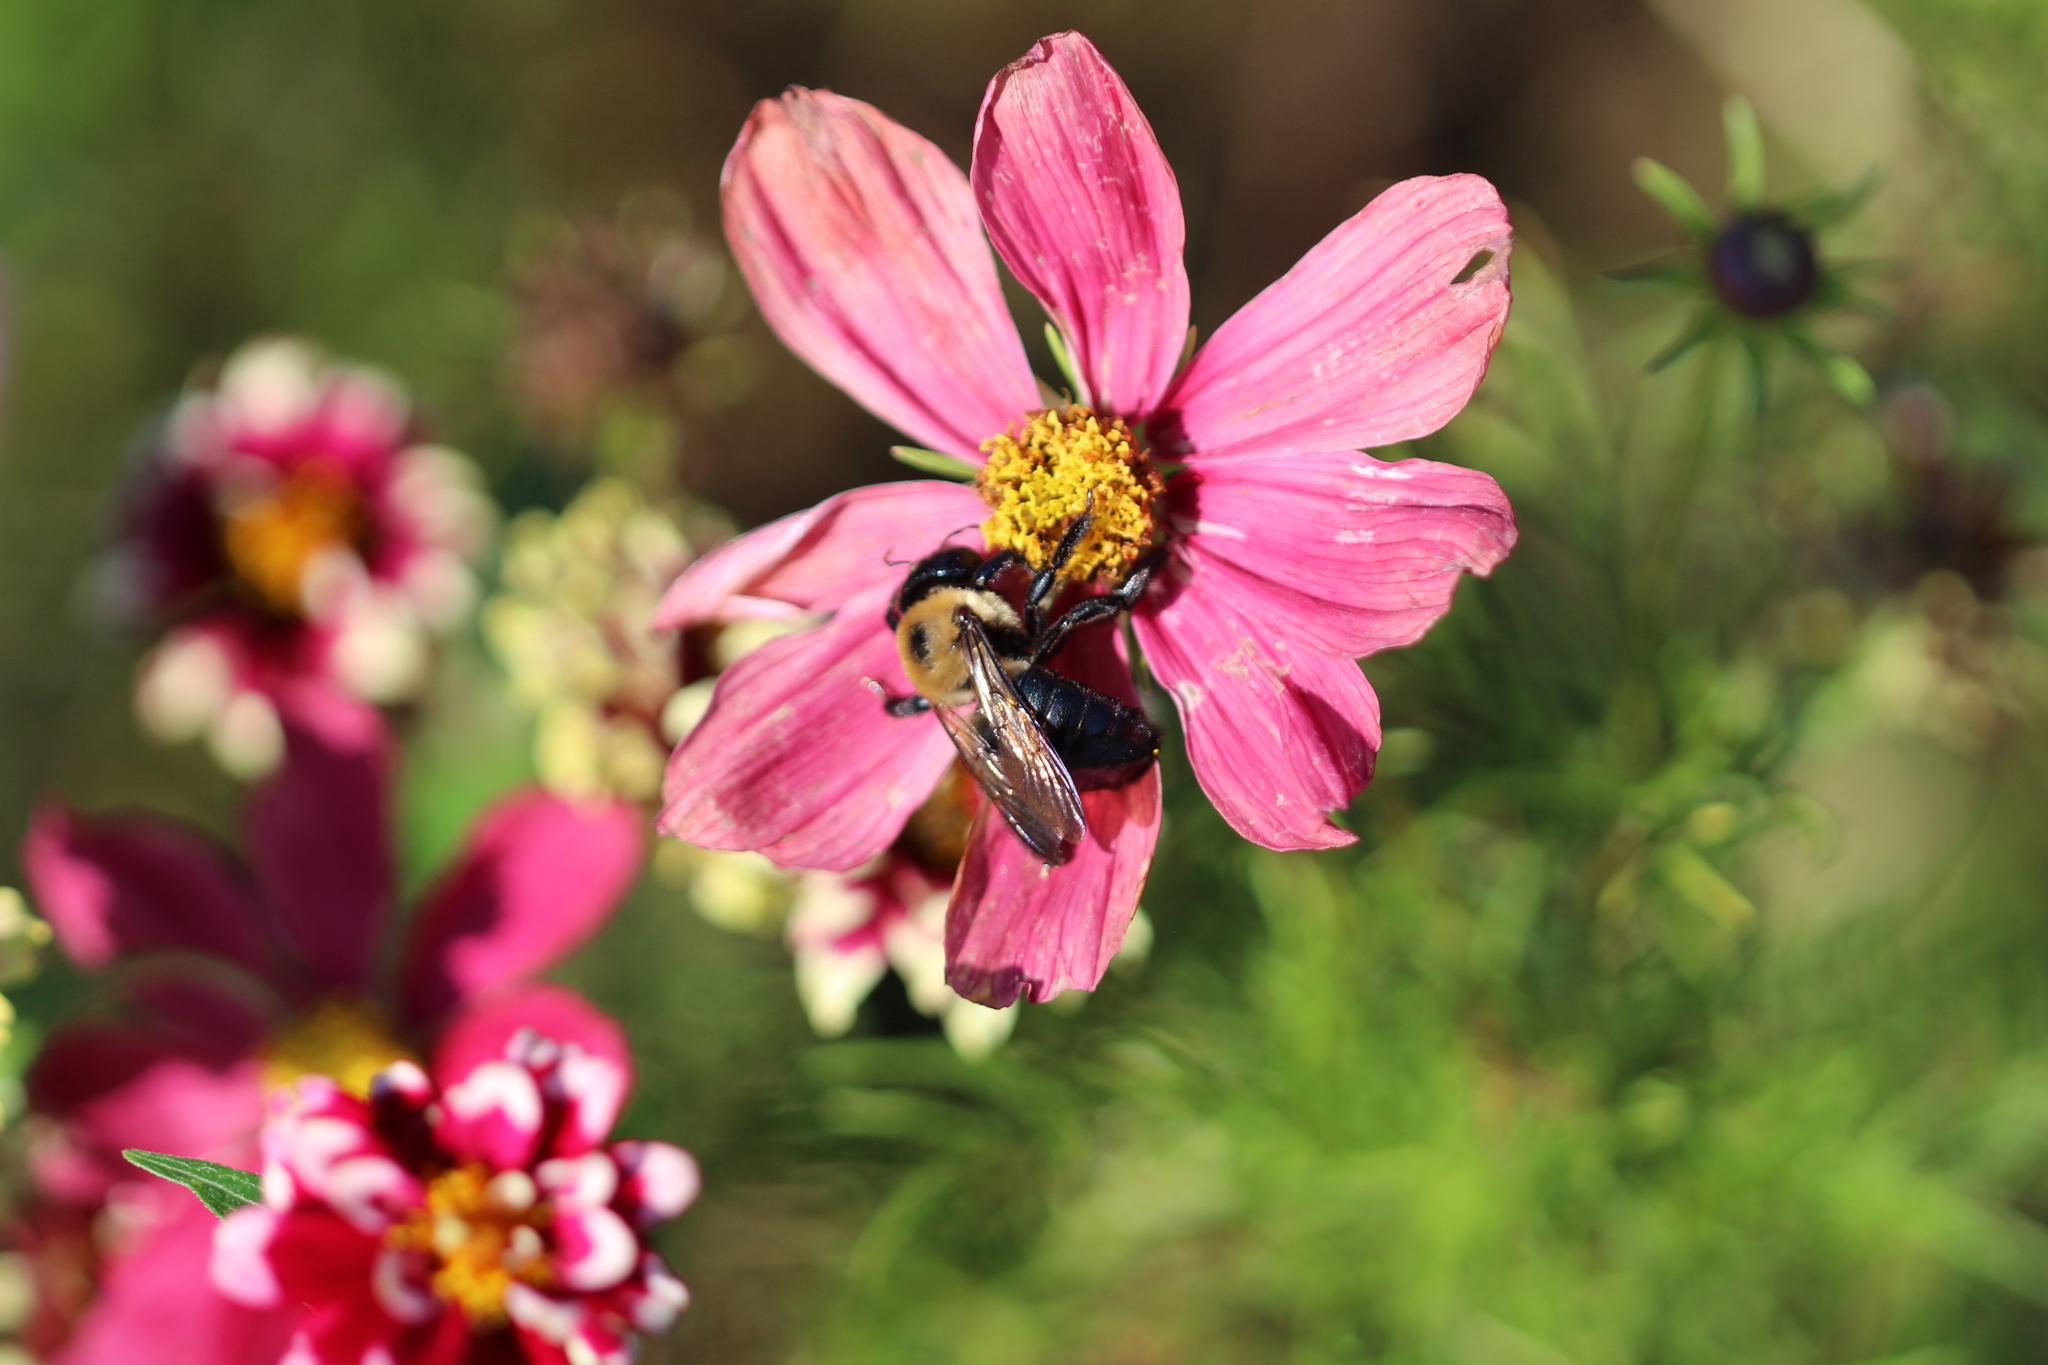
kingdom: Animalia
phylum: Arthropoda
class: Insecta
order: Hymenoptera
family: Apidae
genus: Xylocopa
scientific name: Xylocopa virginica
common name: Carpenter bee
